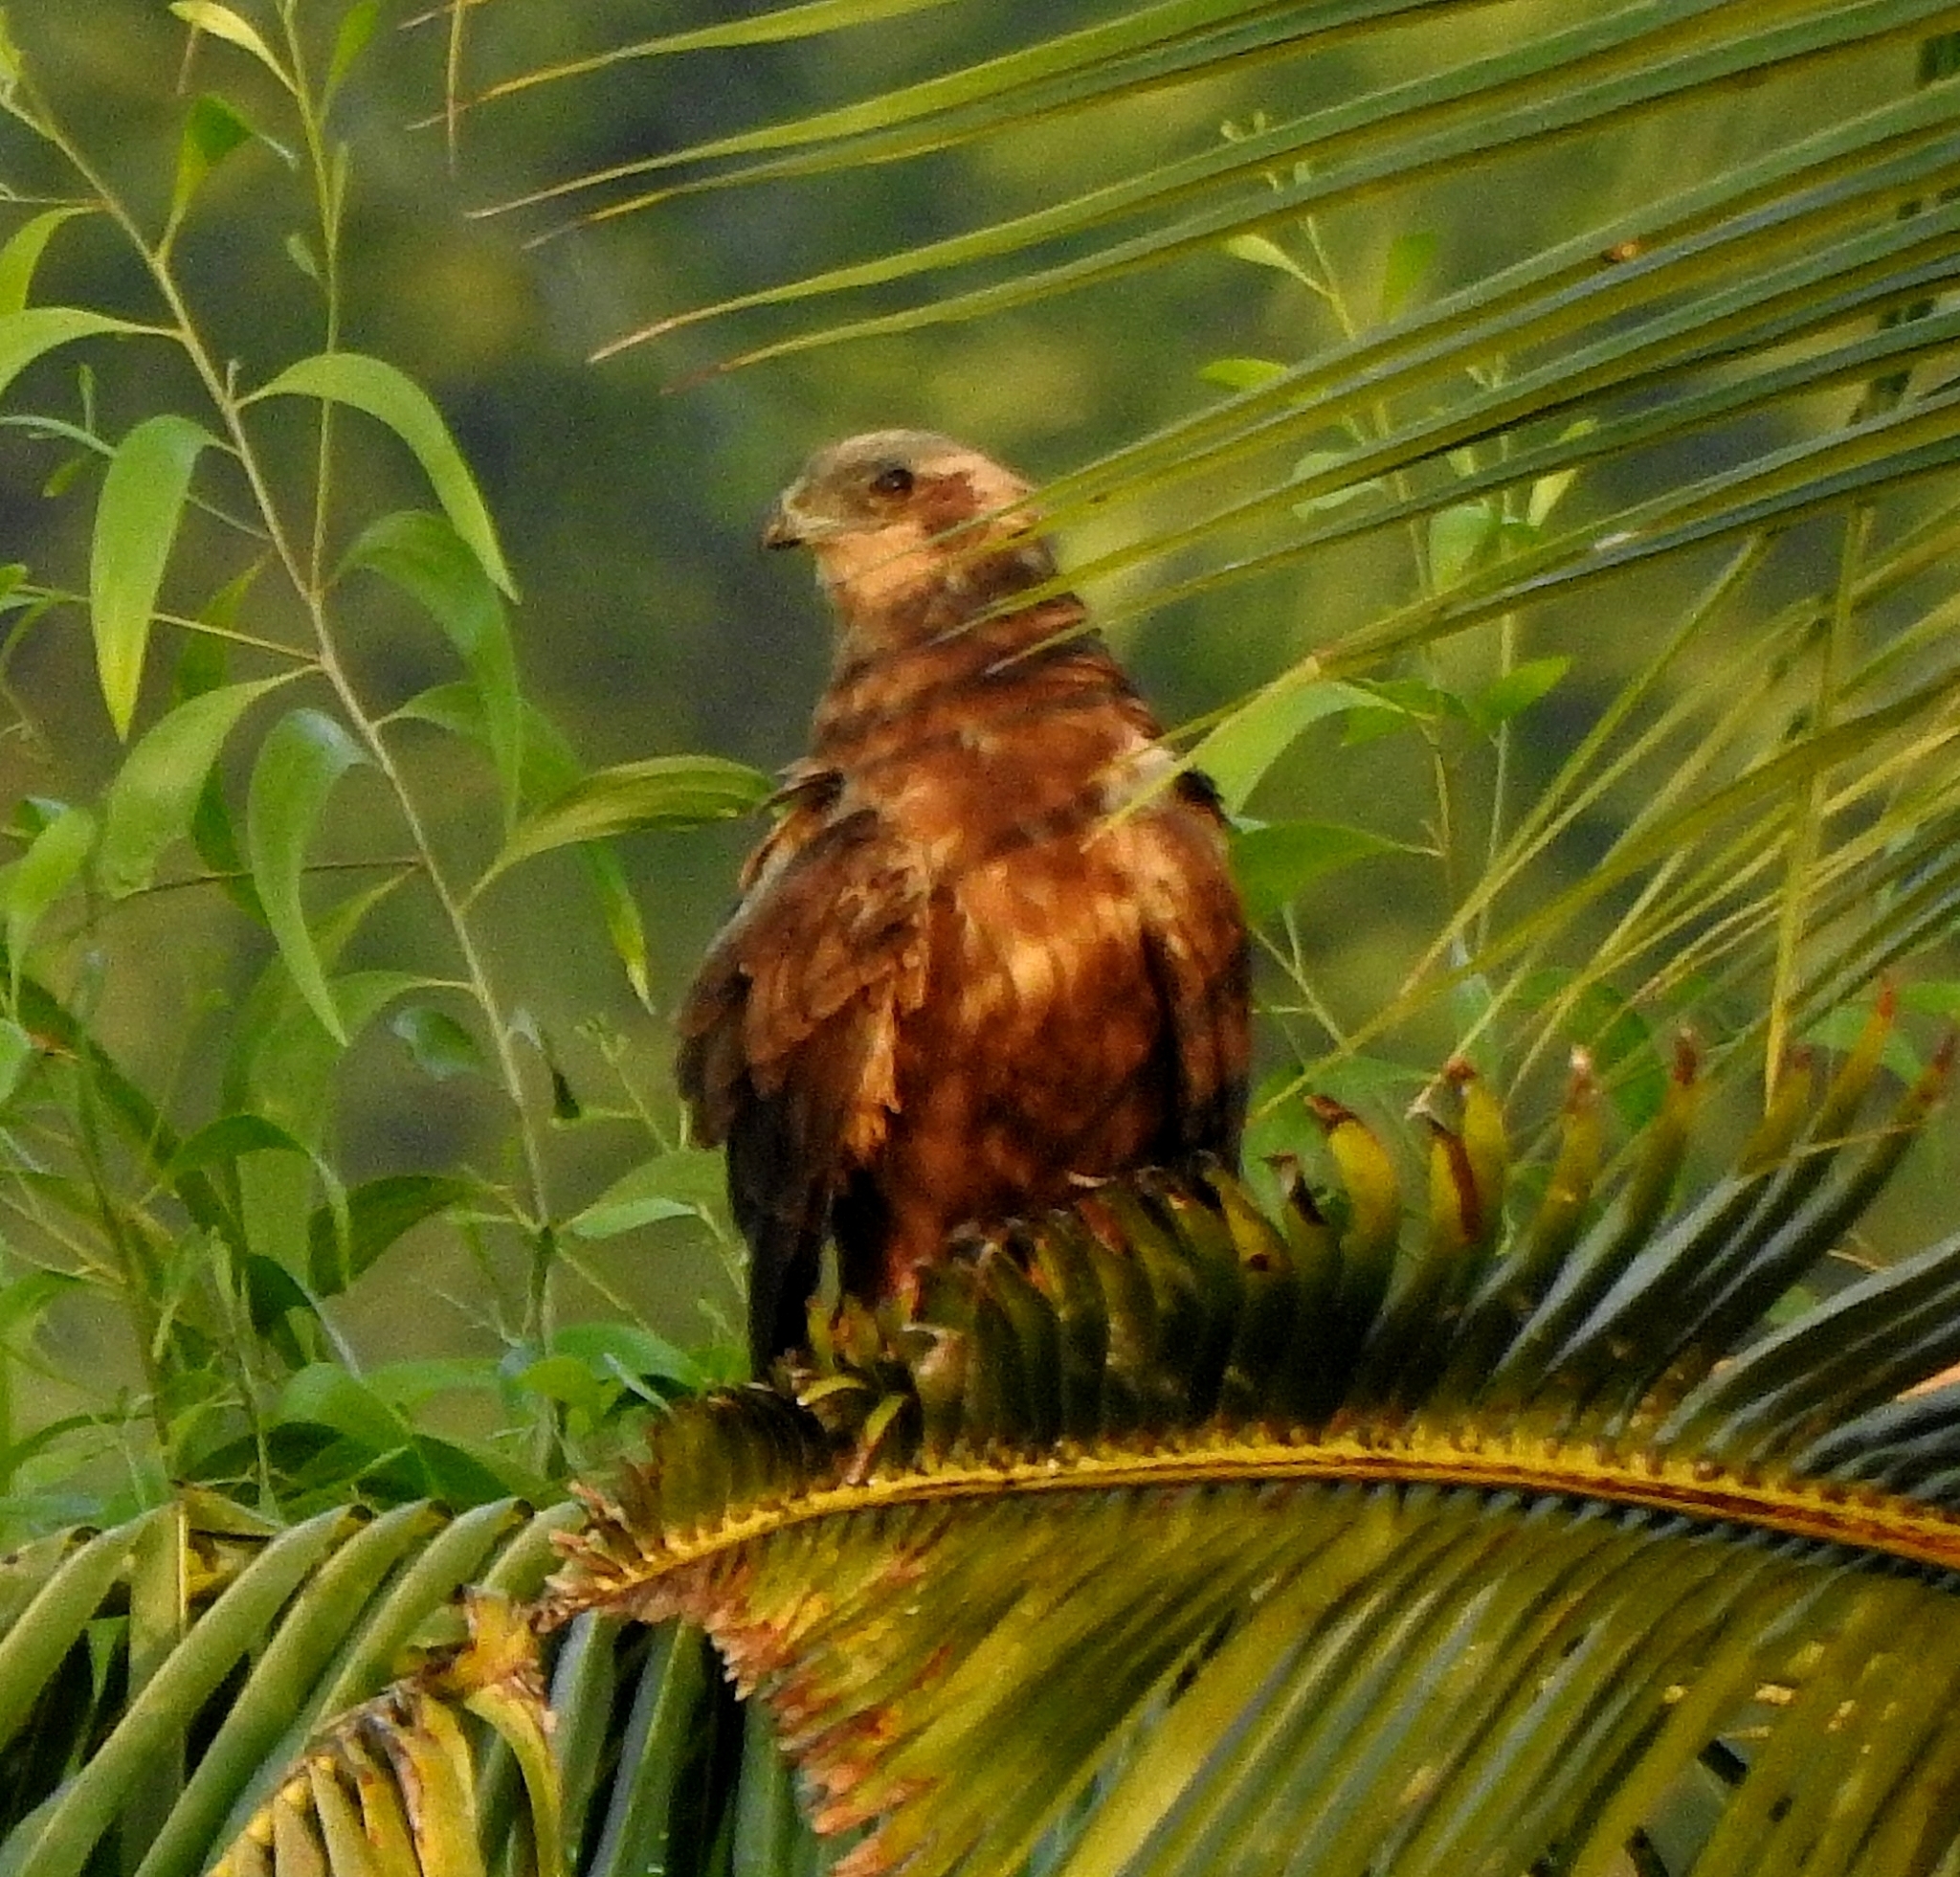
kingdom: Animalia
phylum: Chordata
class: Aves
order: Accipitriformes
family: Accipitridae
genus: Circus
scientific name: Circus aeruginosus
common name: Western marsh harrier
